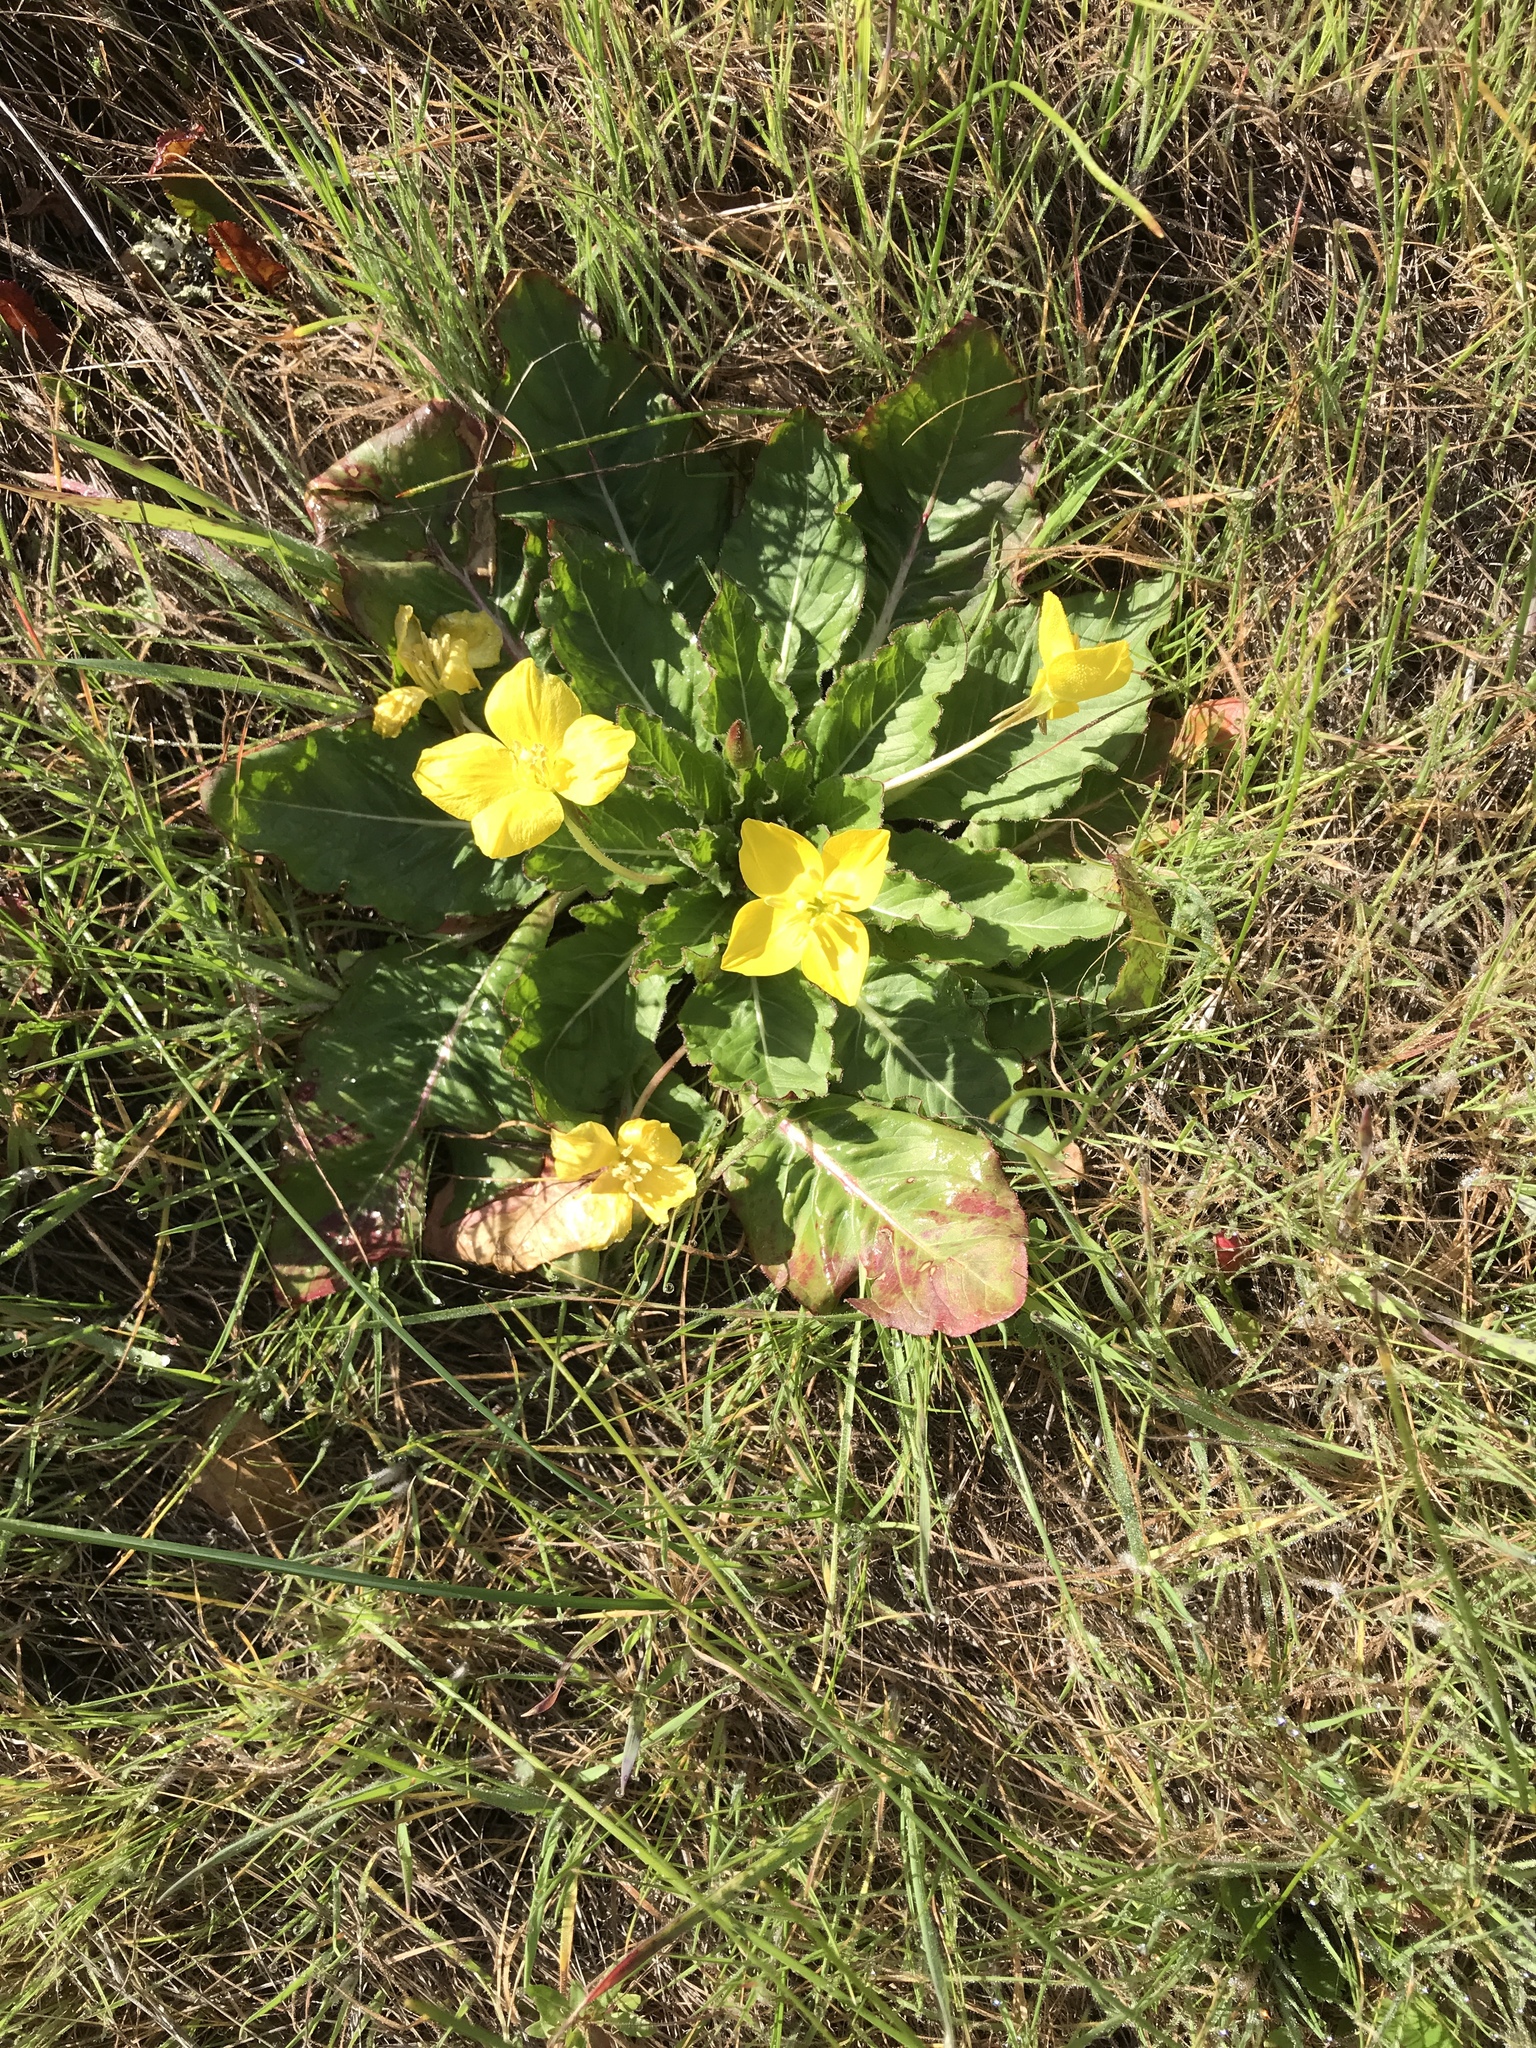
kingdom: Plantae
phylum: Tracheophyta
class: Magnoliopsida
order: Myrtales
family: Onagraceae
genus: Taraxia
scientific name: Taraxia ovata
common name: Goldeneggs
